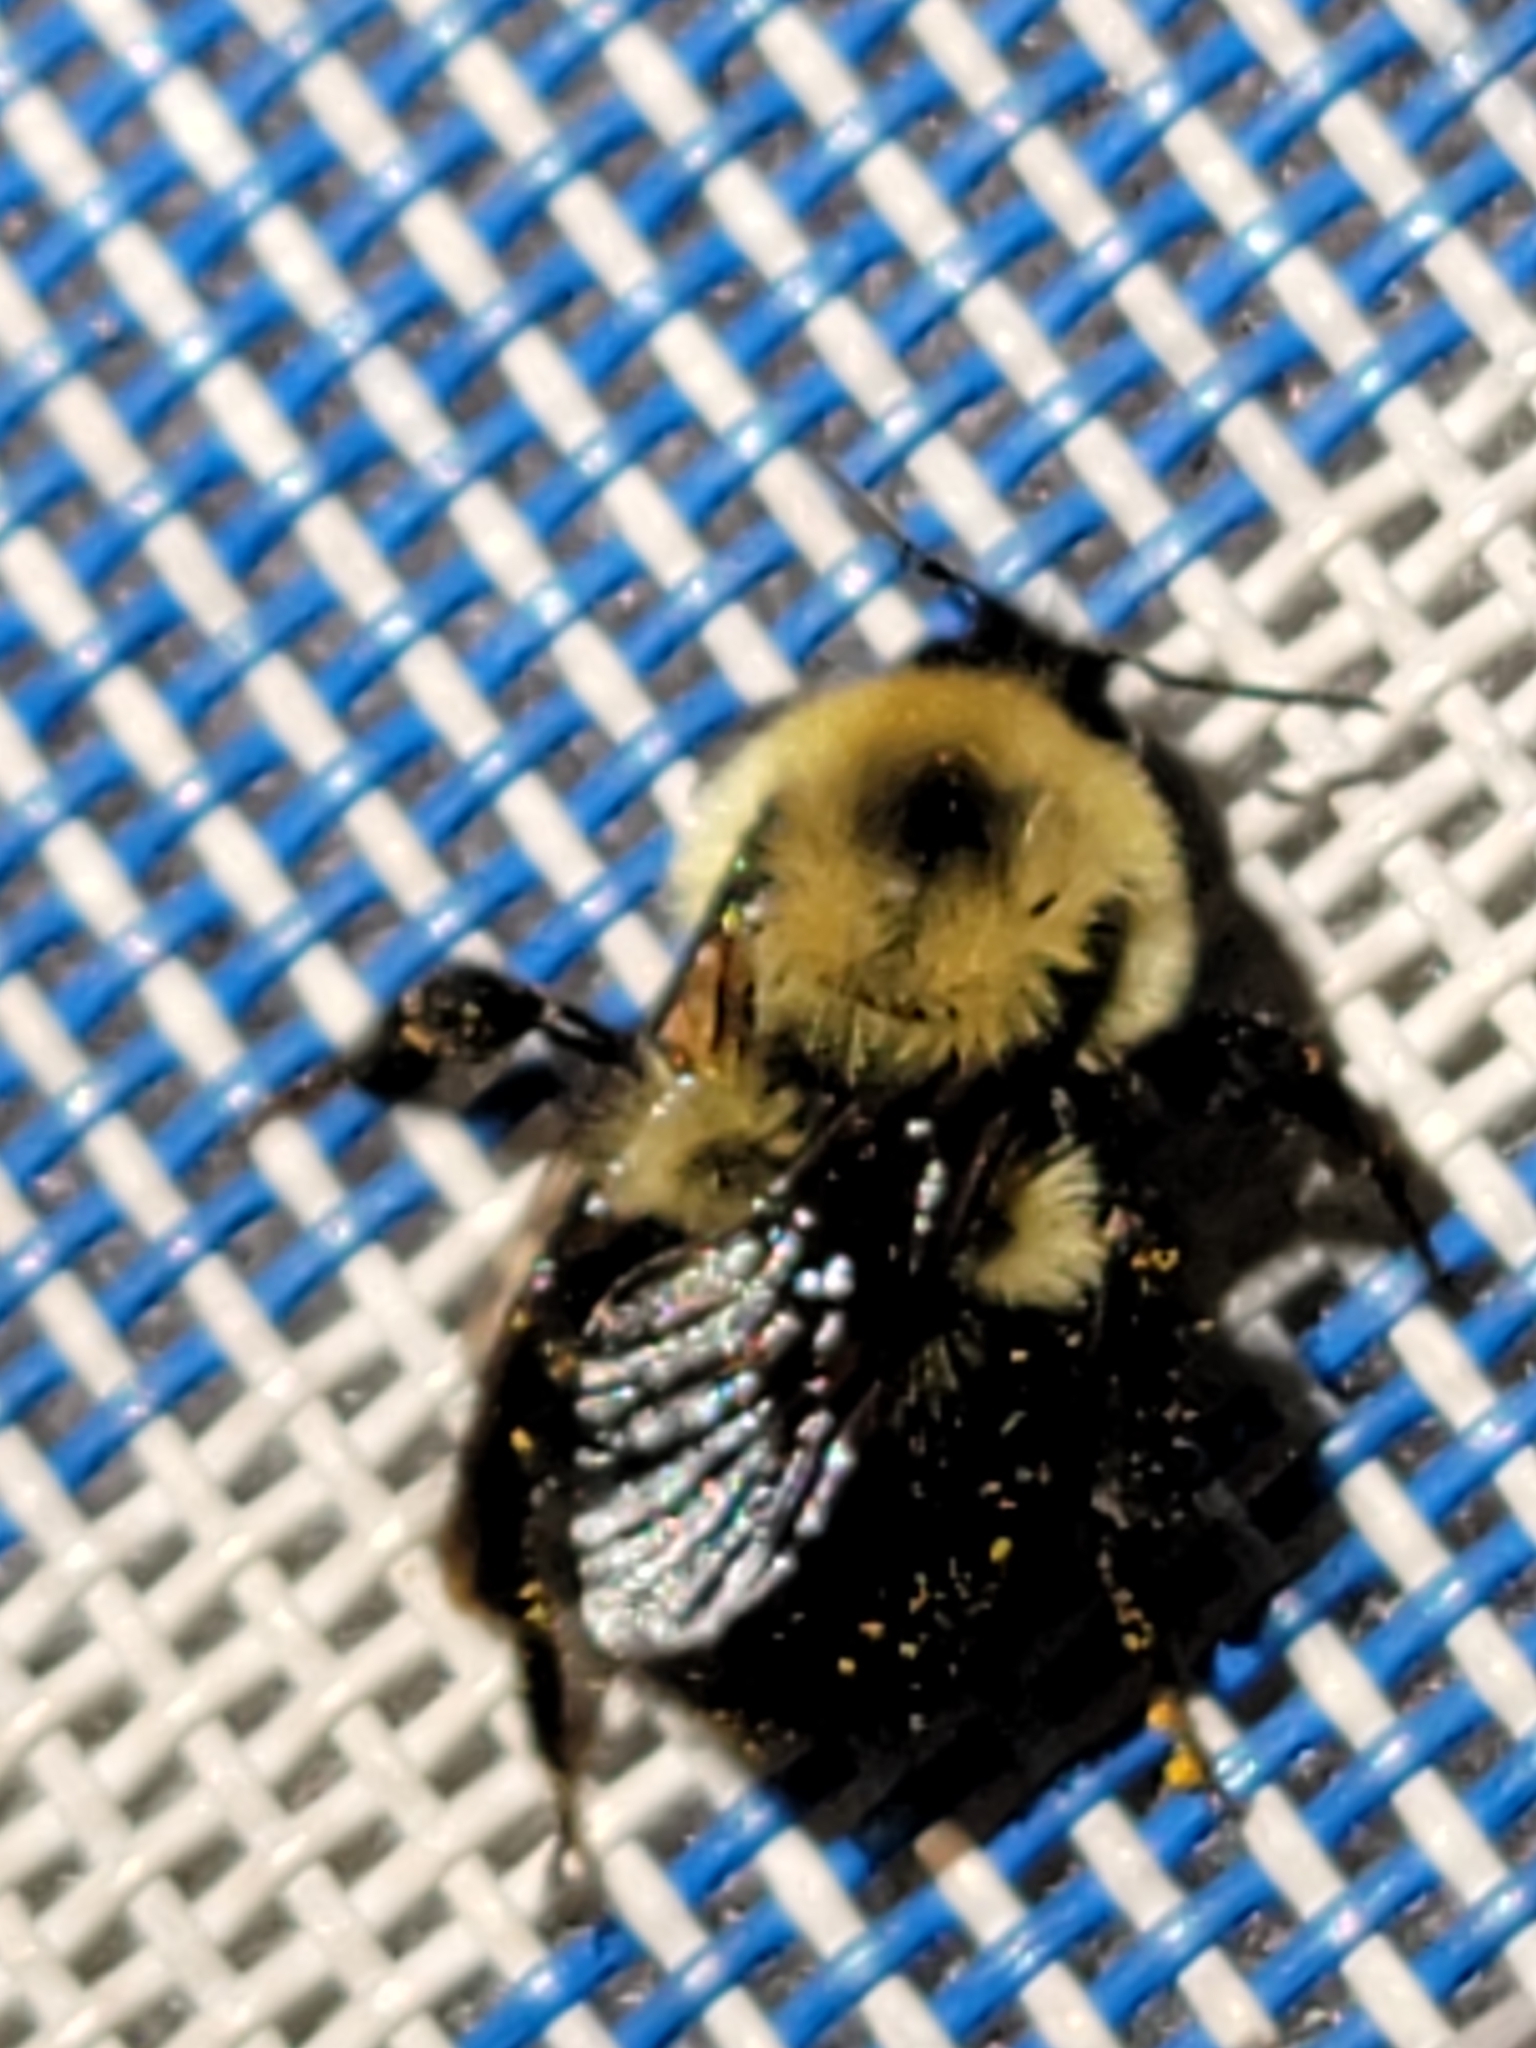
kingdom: Animalia
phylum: Arthropoda
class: Insecta
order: Hymenoptera
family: Apidae
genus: Bombus
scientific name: Bombus bimaculatus
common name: Two-spotted bumble bee
